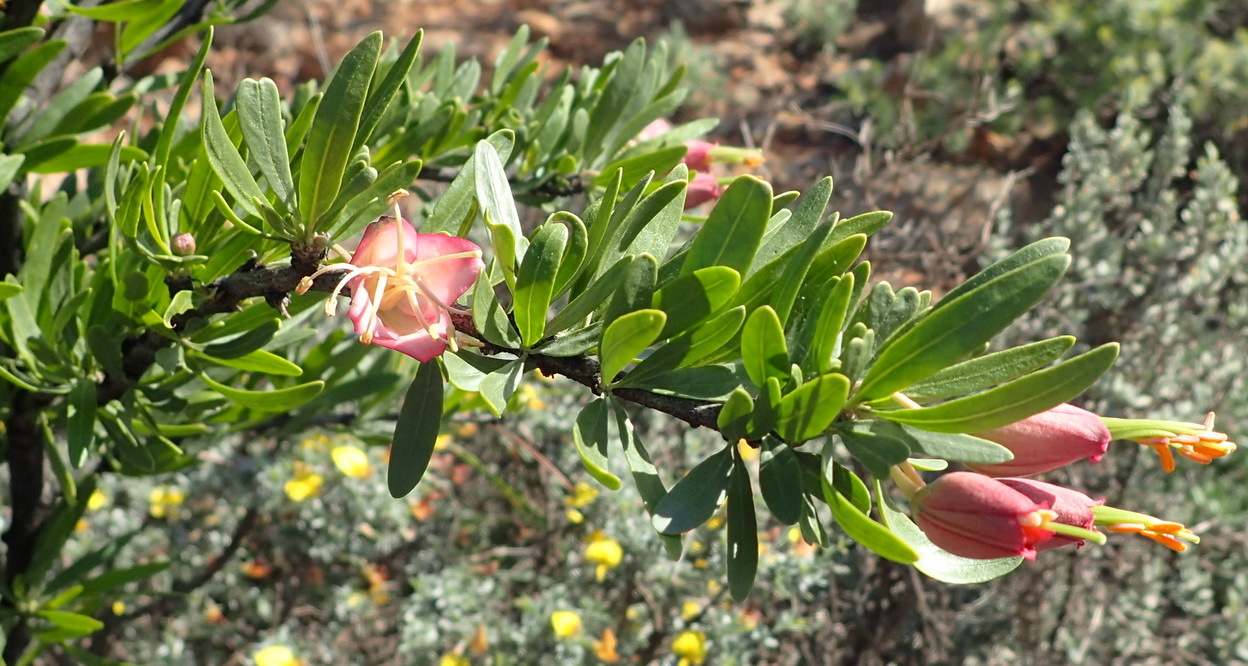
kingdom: Plantae
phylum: Tracheophyta
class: Magnoliopsida
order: Sapindales
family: Meliaceae
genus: Nymania
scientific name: Nymania capensis
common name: Chinese lantern tree
